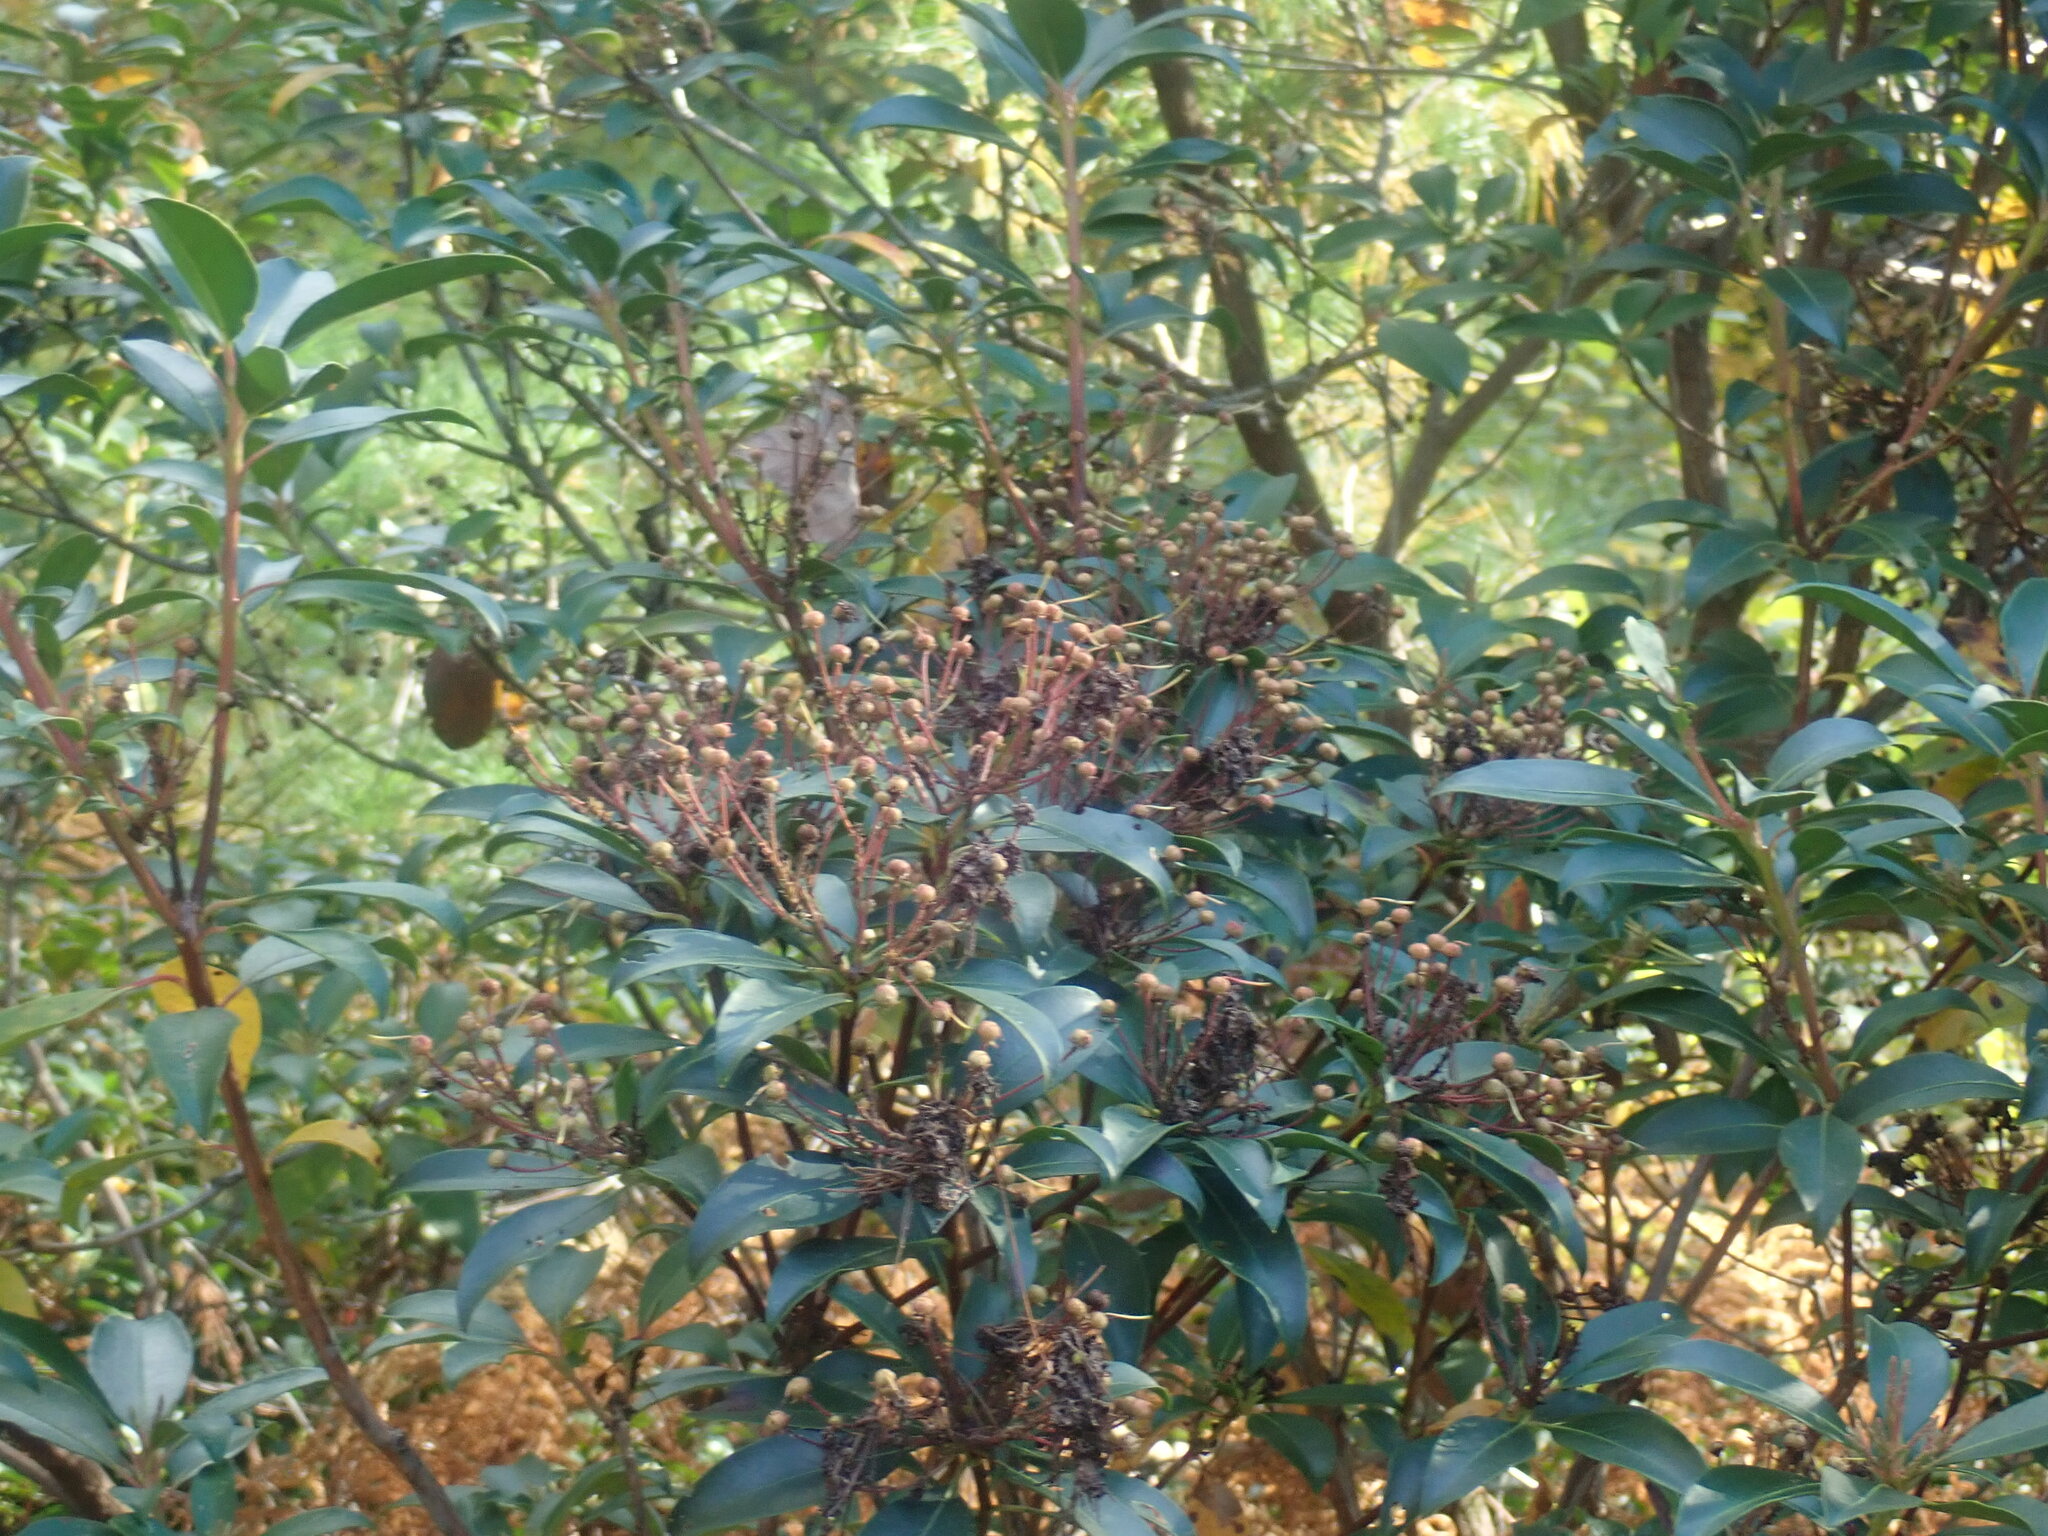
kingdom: Plantae
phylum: Tracheophyta
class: Magnoliopsida
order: Ericales
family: Ericaceae
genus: Kalmia
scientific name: Kalmia latifolia
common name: Mountain-laurel
